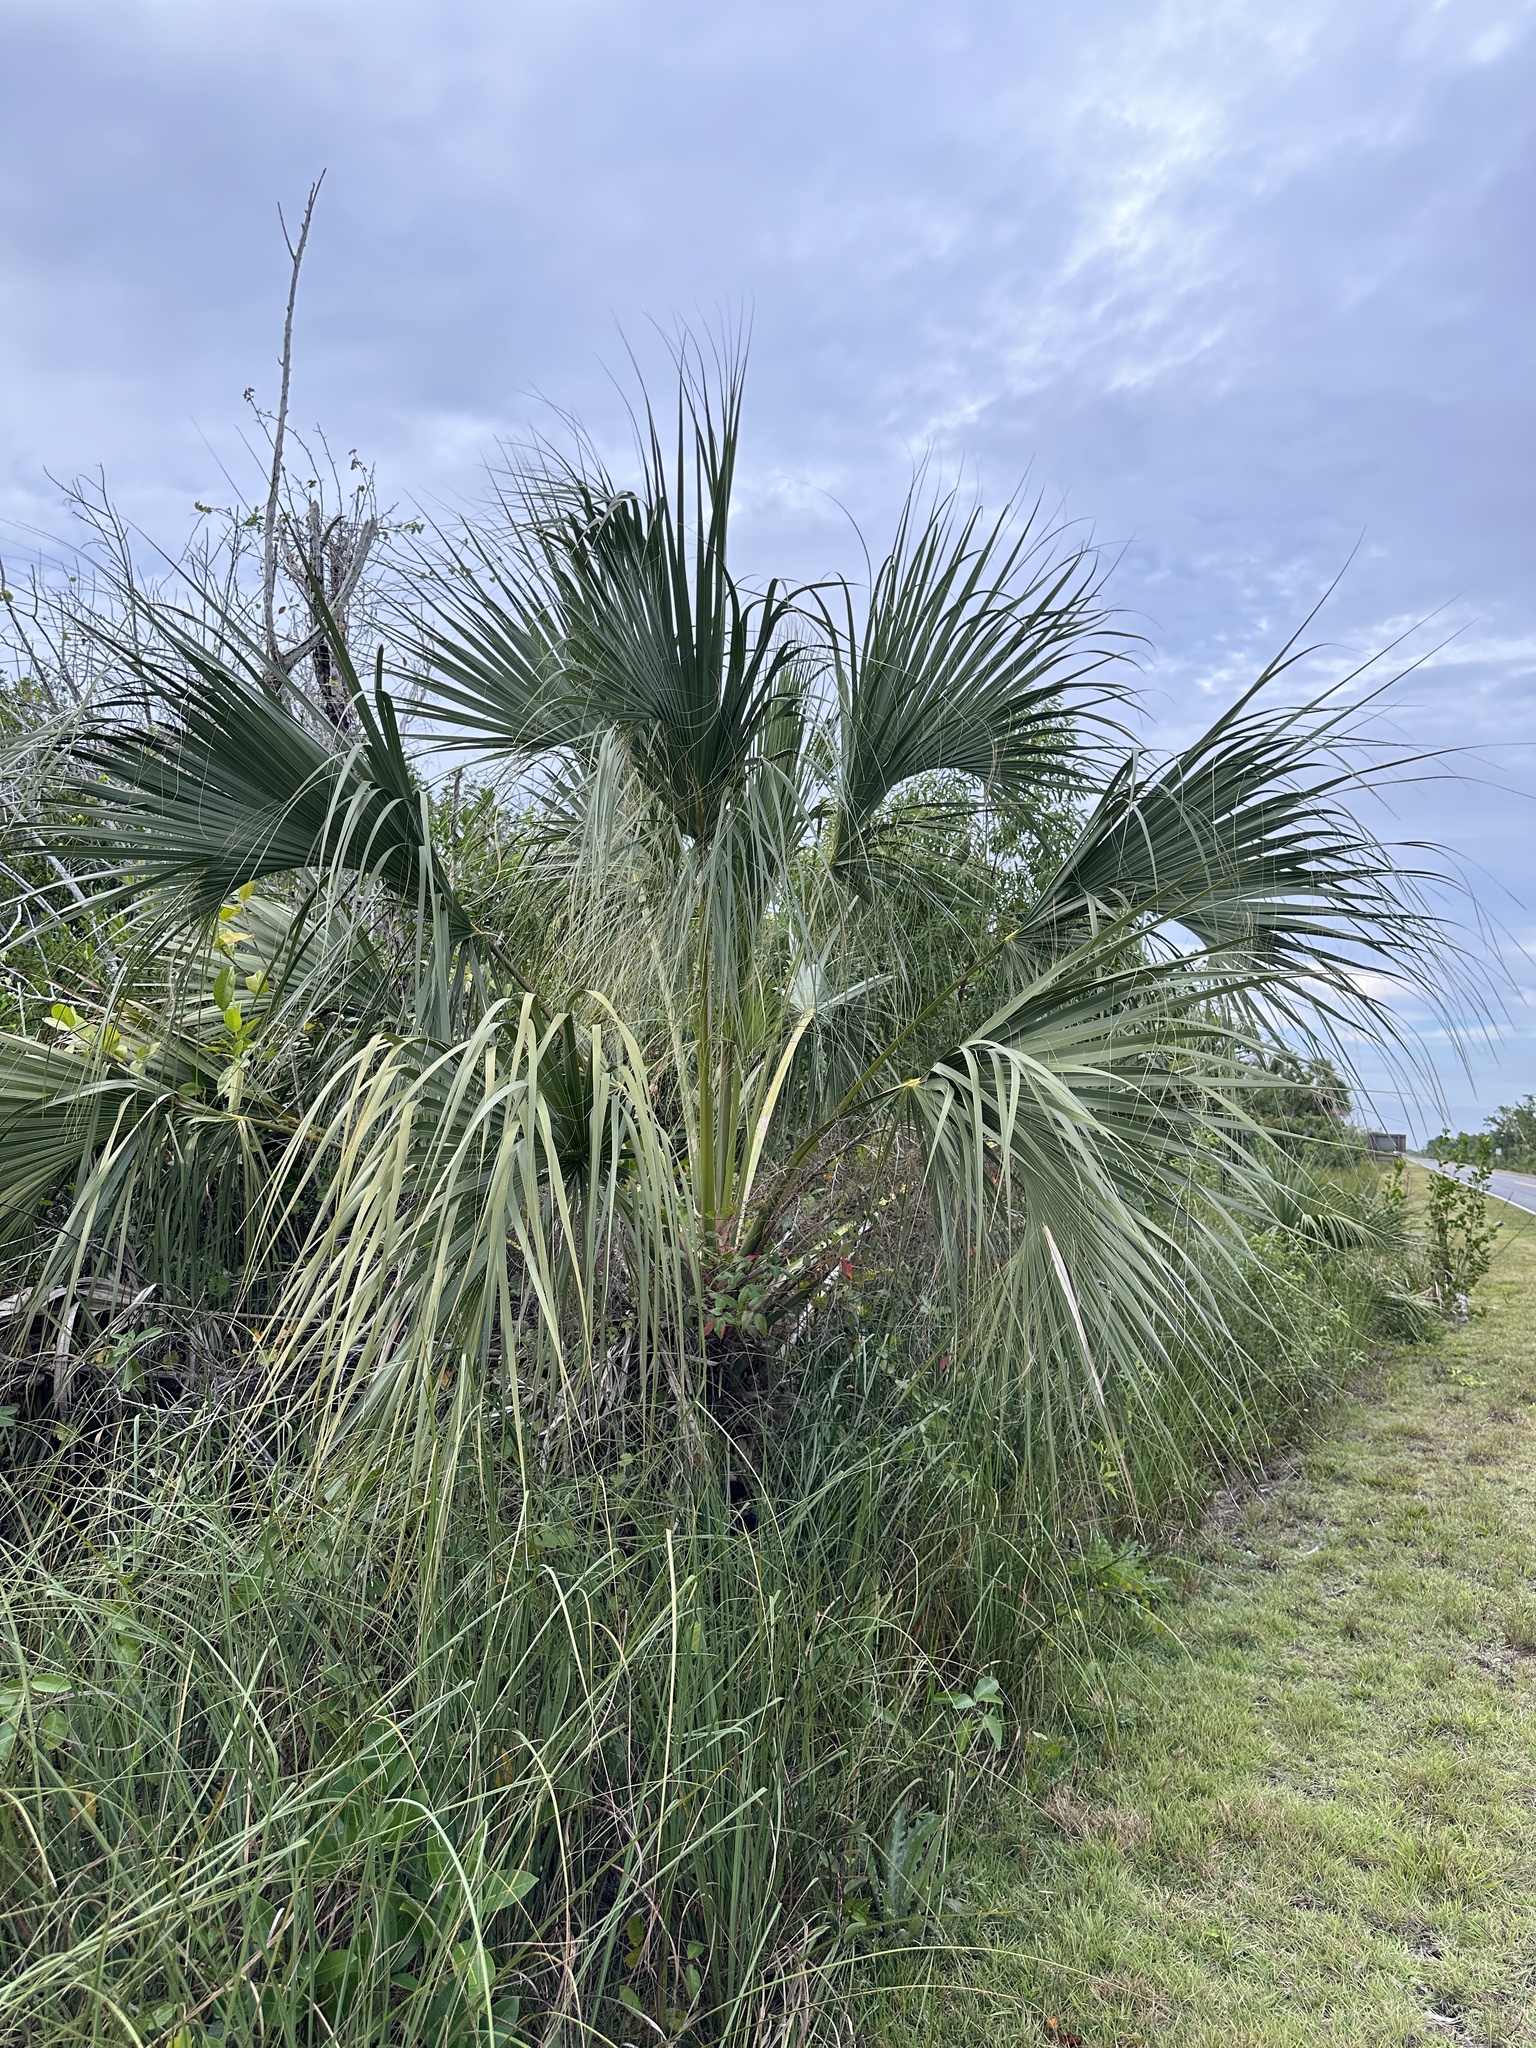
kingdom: Plantae
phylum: Tracheophyta
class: Liliopsida
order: Arecales
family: Arecaceae
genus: Sabal
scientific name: Sabal palmetto
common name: Blue palmetto
